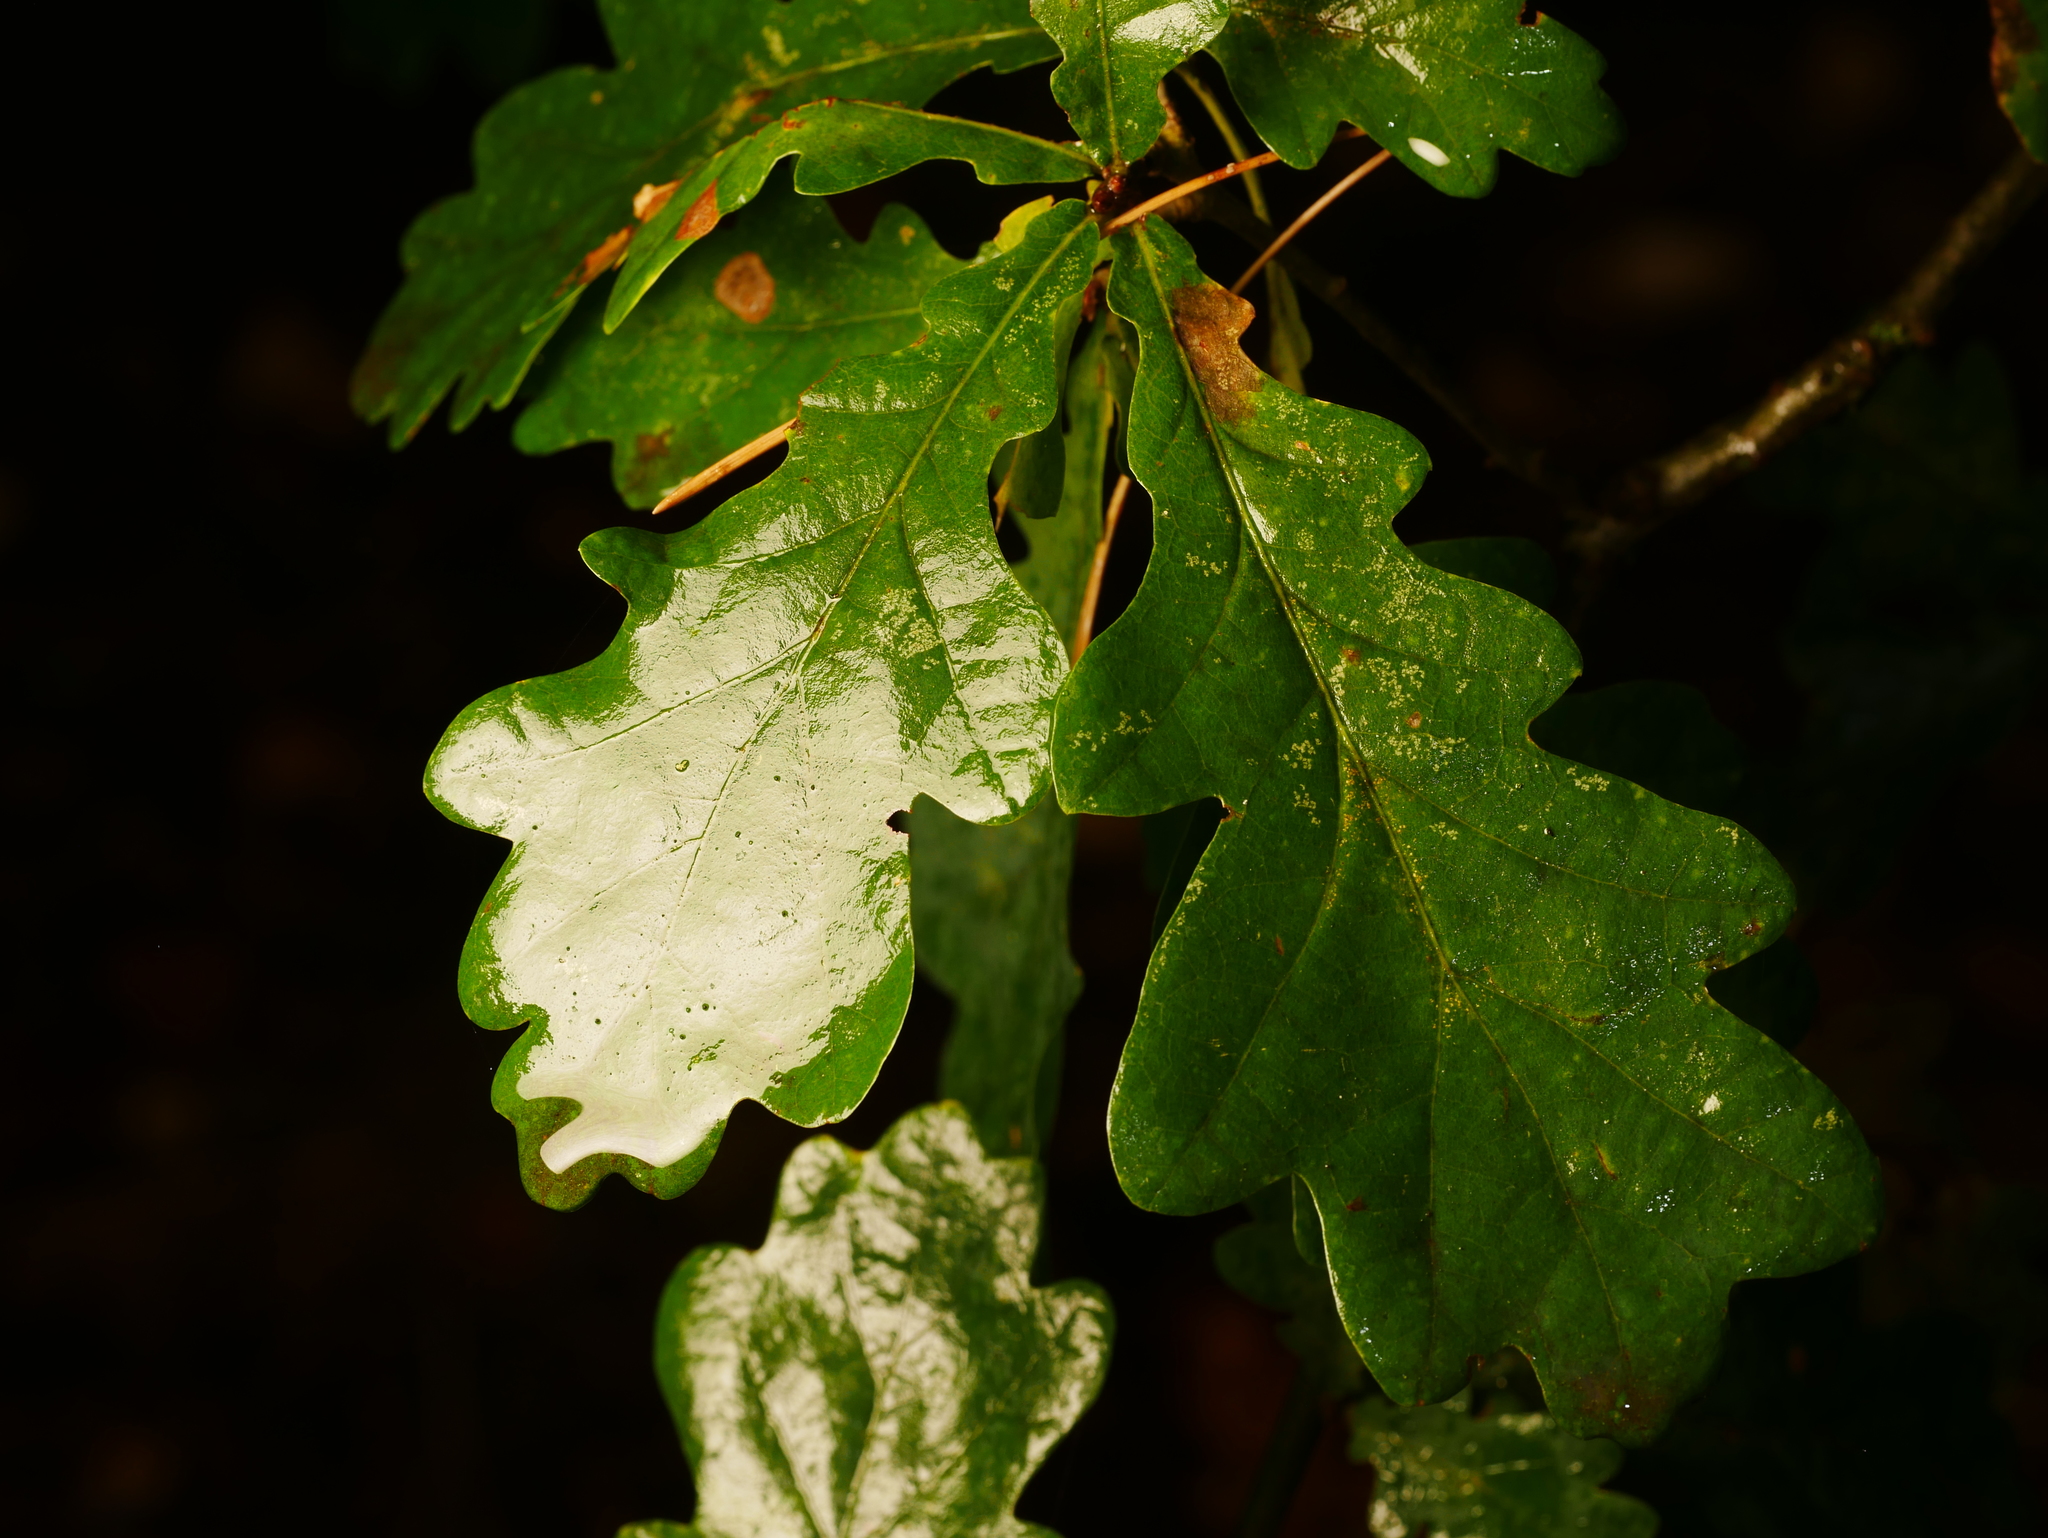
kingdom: Plantae
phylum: Tracheophyta
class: Magnoliopsida
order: Fagales
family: Fagaceae
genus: Quercus
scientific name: Quercus robur
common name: Pedunculate oak
